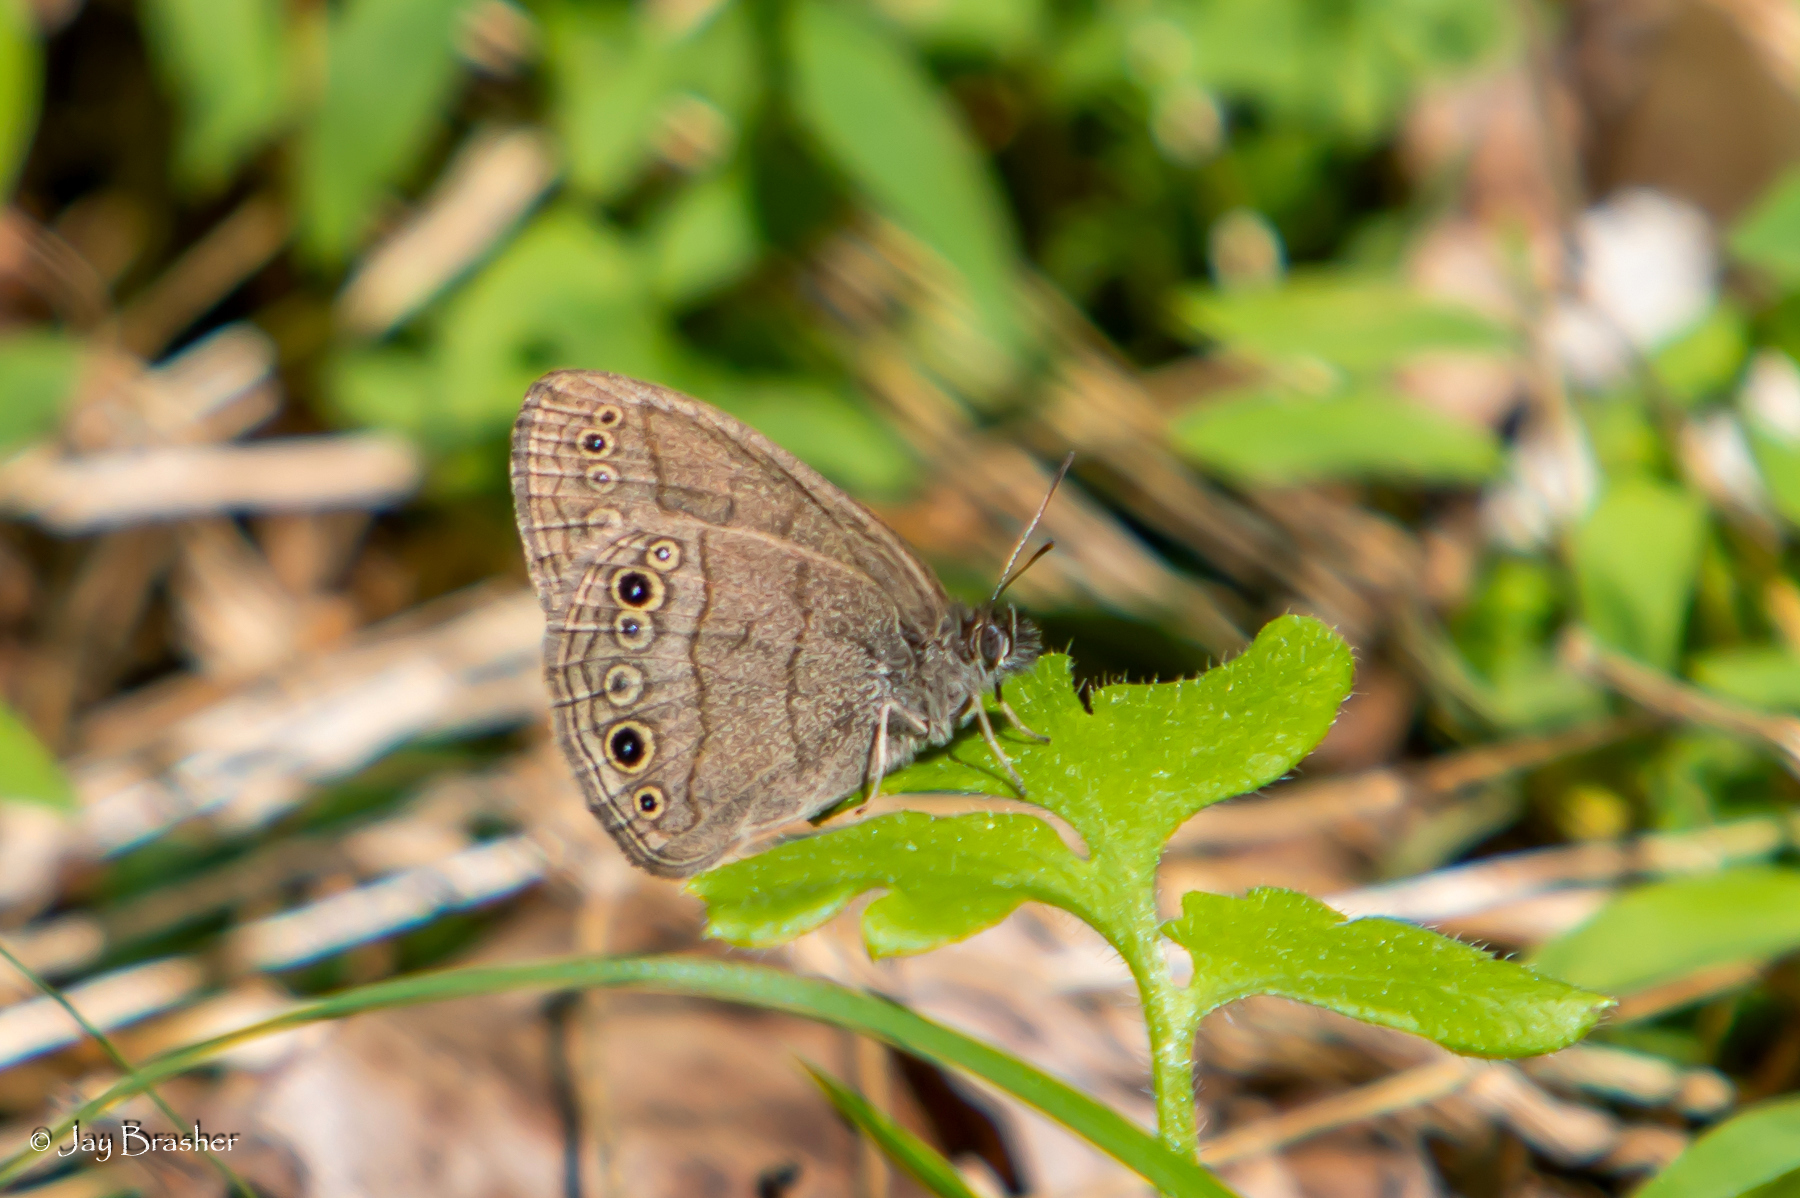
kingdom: Animalia
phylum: Arthropoda
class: Insecta
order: Lepidoptera
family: Nymphalidae
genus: Hermeuptychia
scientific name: Hermeuptychia hermes
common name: Hermes satyr
